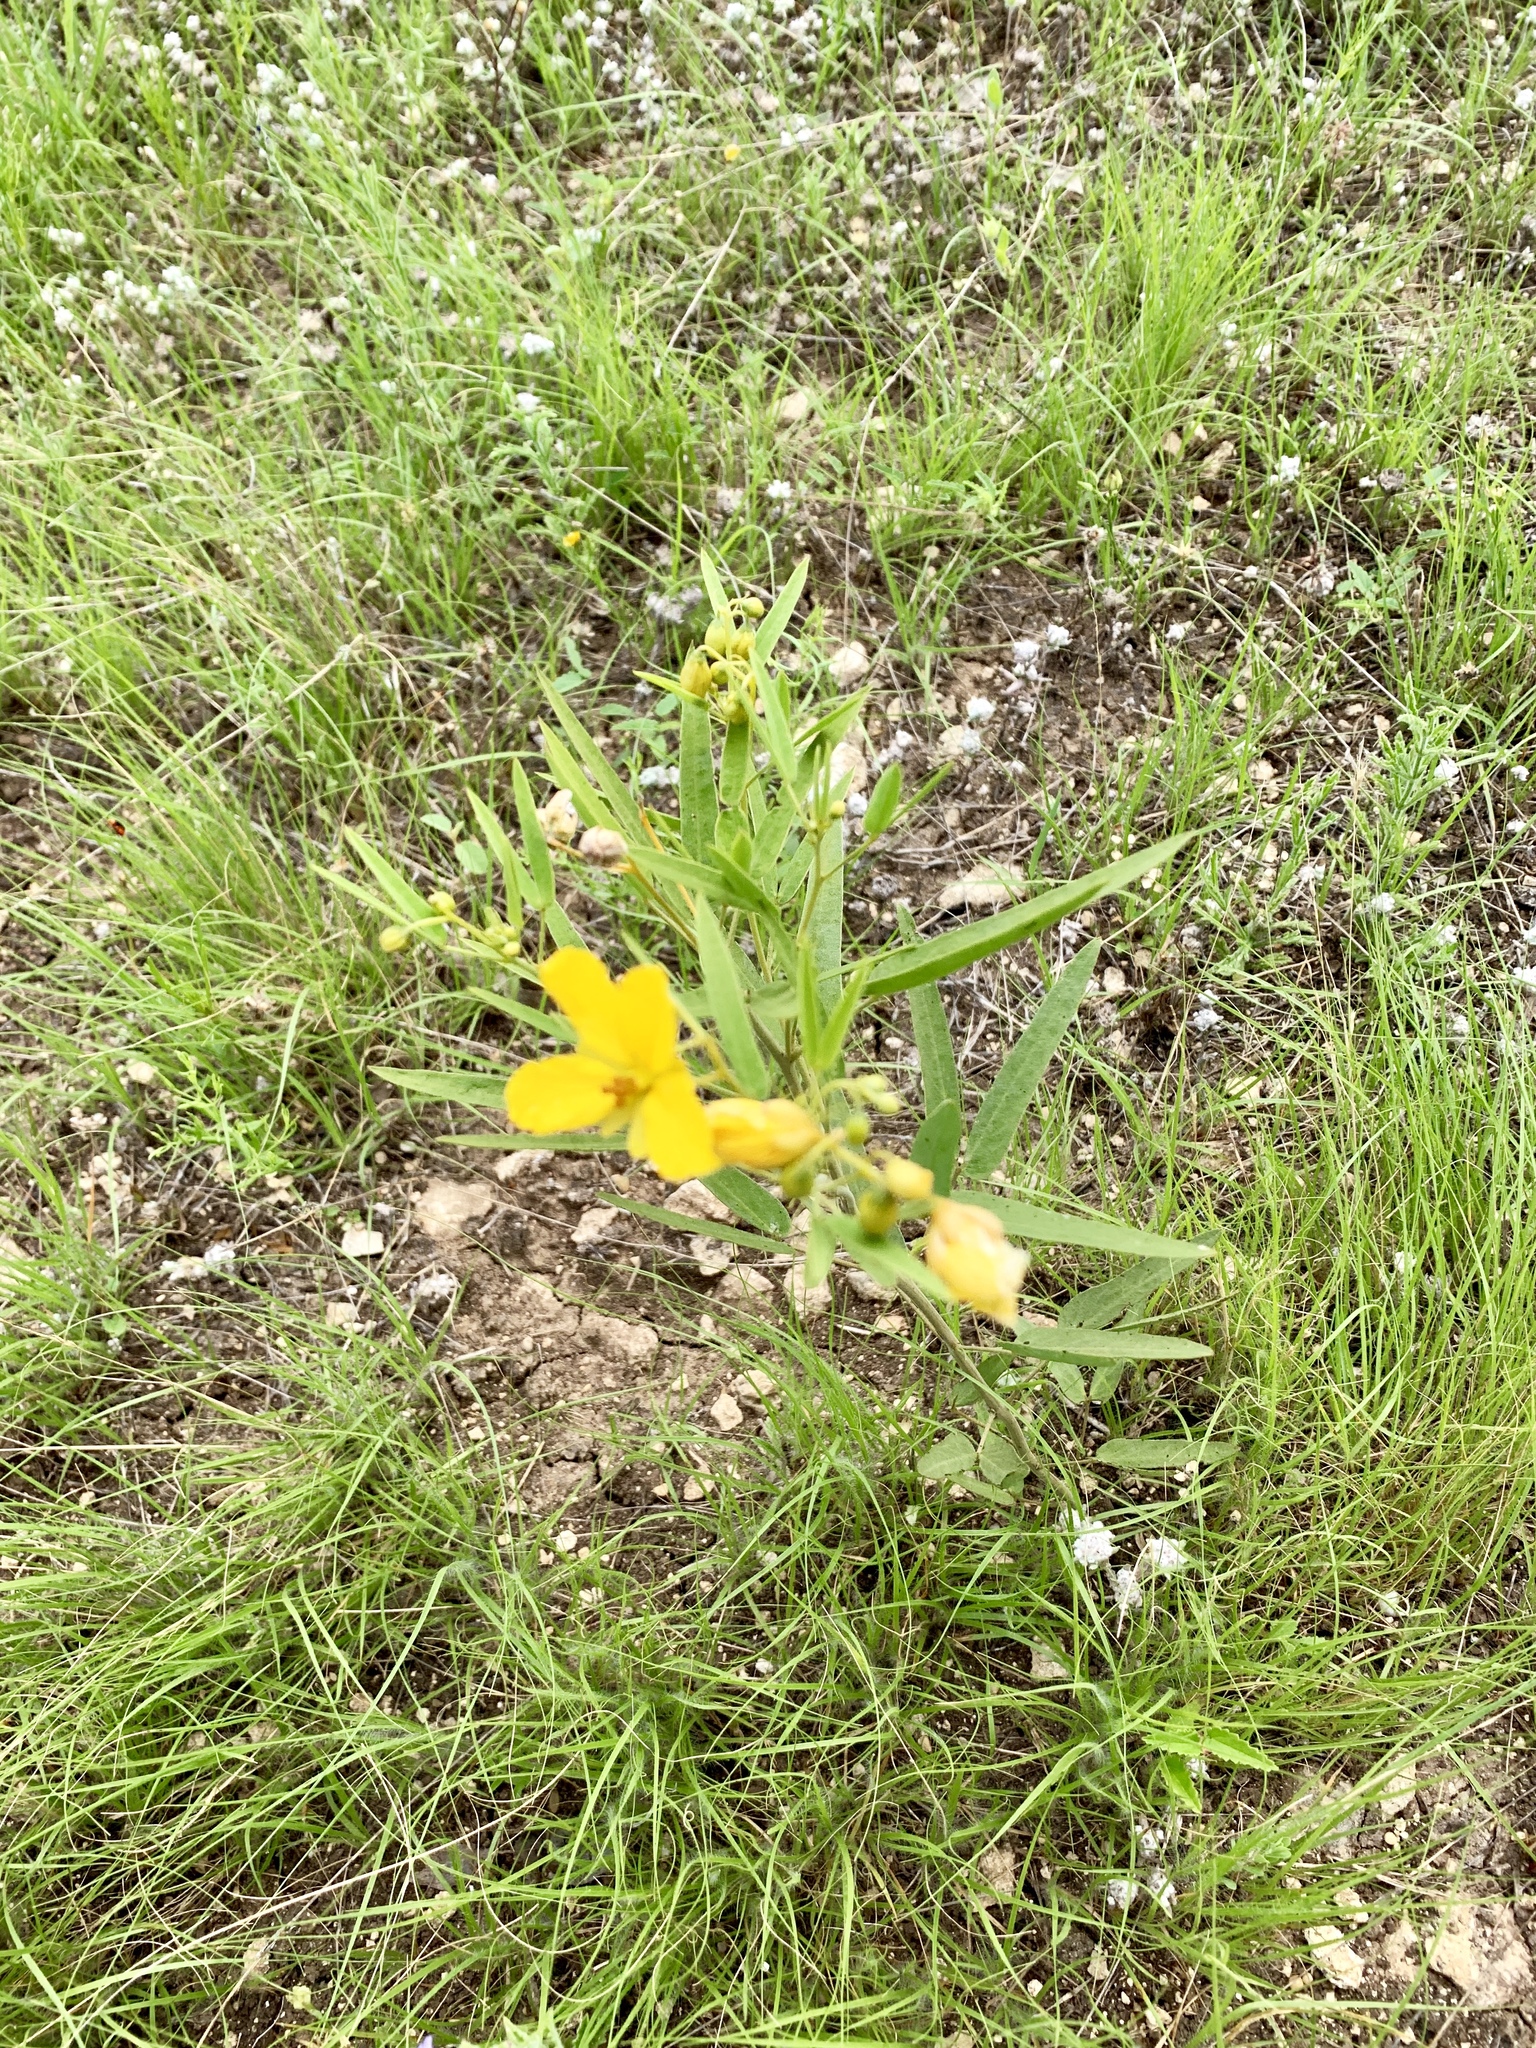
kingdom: Plantae
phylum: Tracheophyta
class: Magnoliopsida
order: Fabales
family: Fabaceae
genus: Senna
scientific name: Senna roemeriana
